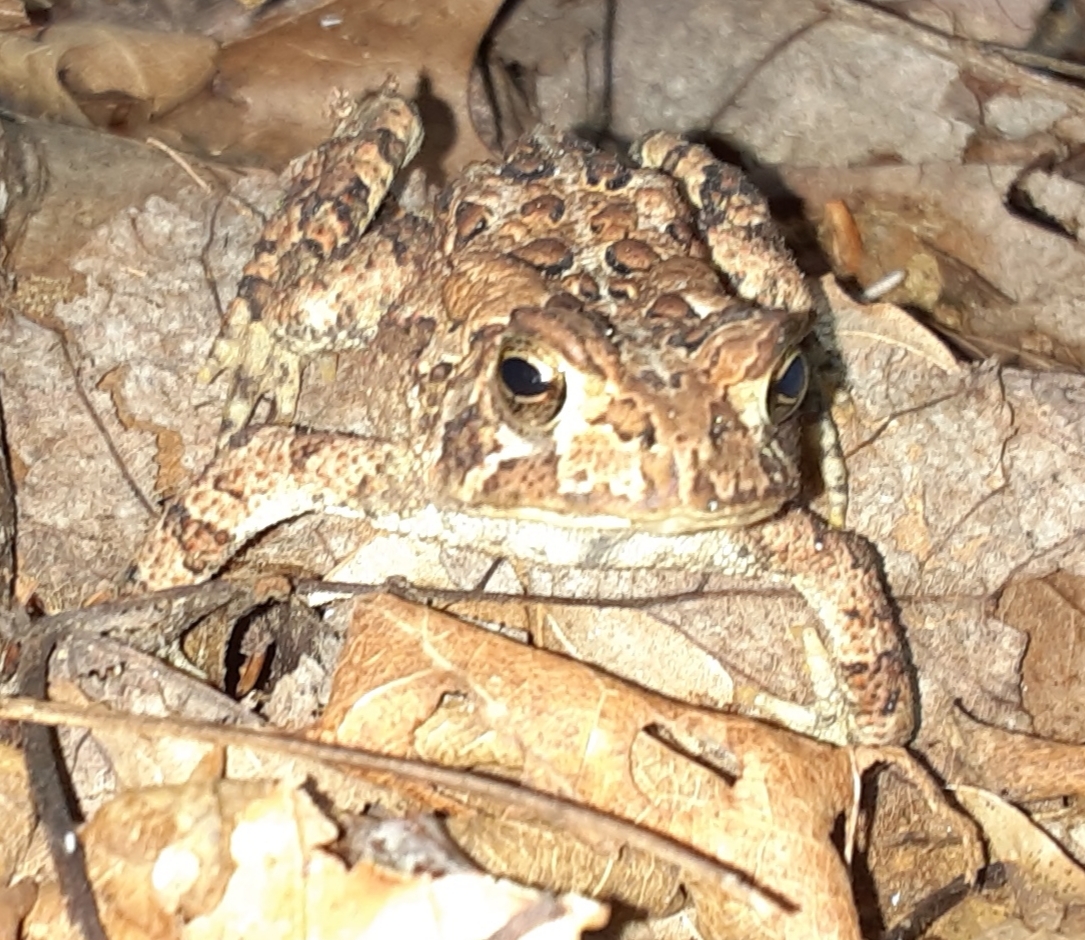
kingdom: Animalia
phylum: Chordata
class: Amphibia
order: Anura
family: Bufonidae
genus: Anaxyrus
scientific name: Anaxyrus americanus
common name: American toad
